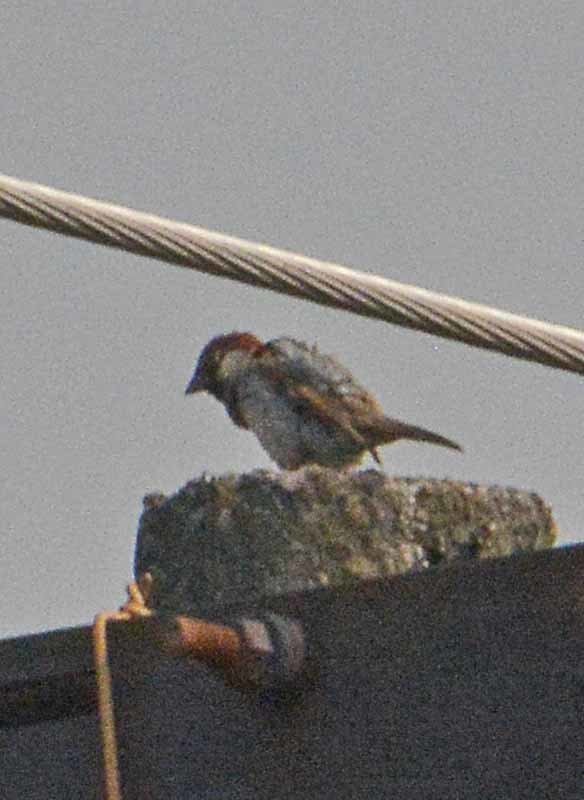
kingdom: Animalia
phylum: Chordata
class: Aves
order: Passeriformes
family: Passeridae
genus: Passer
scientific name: Passer domesticus
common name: House sparrow
